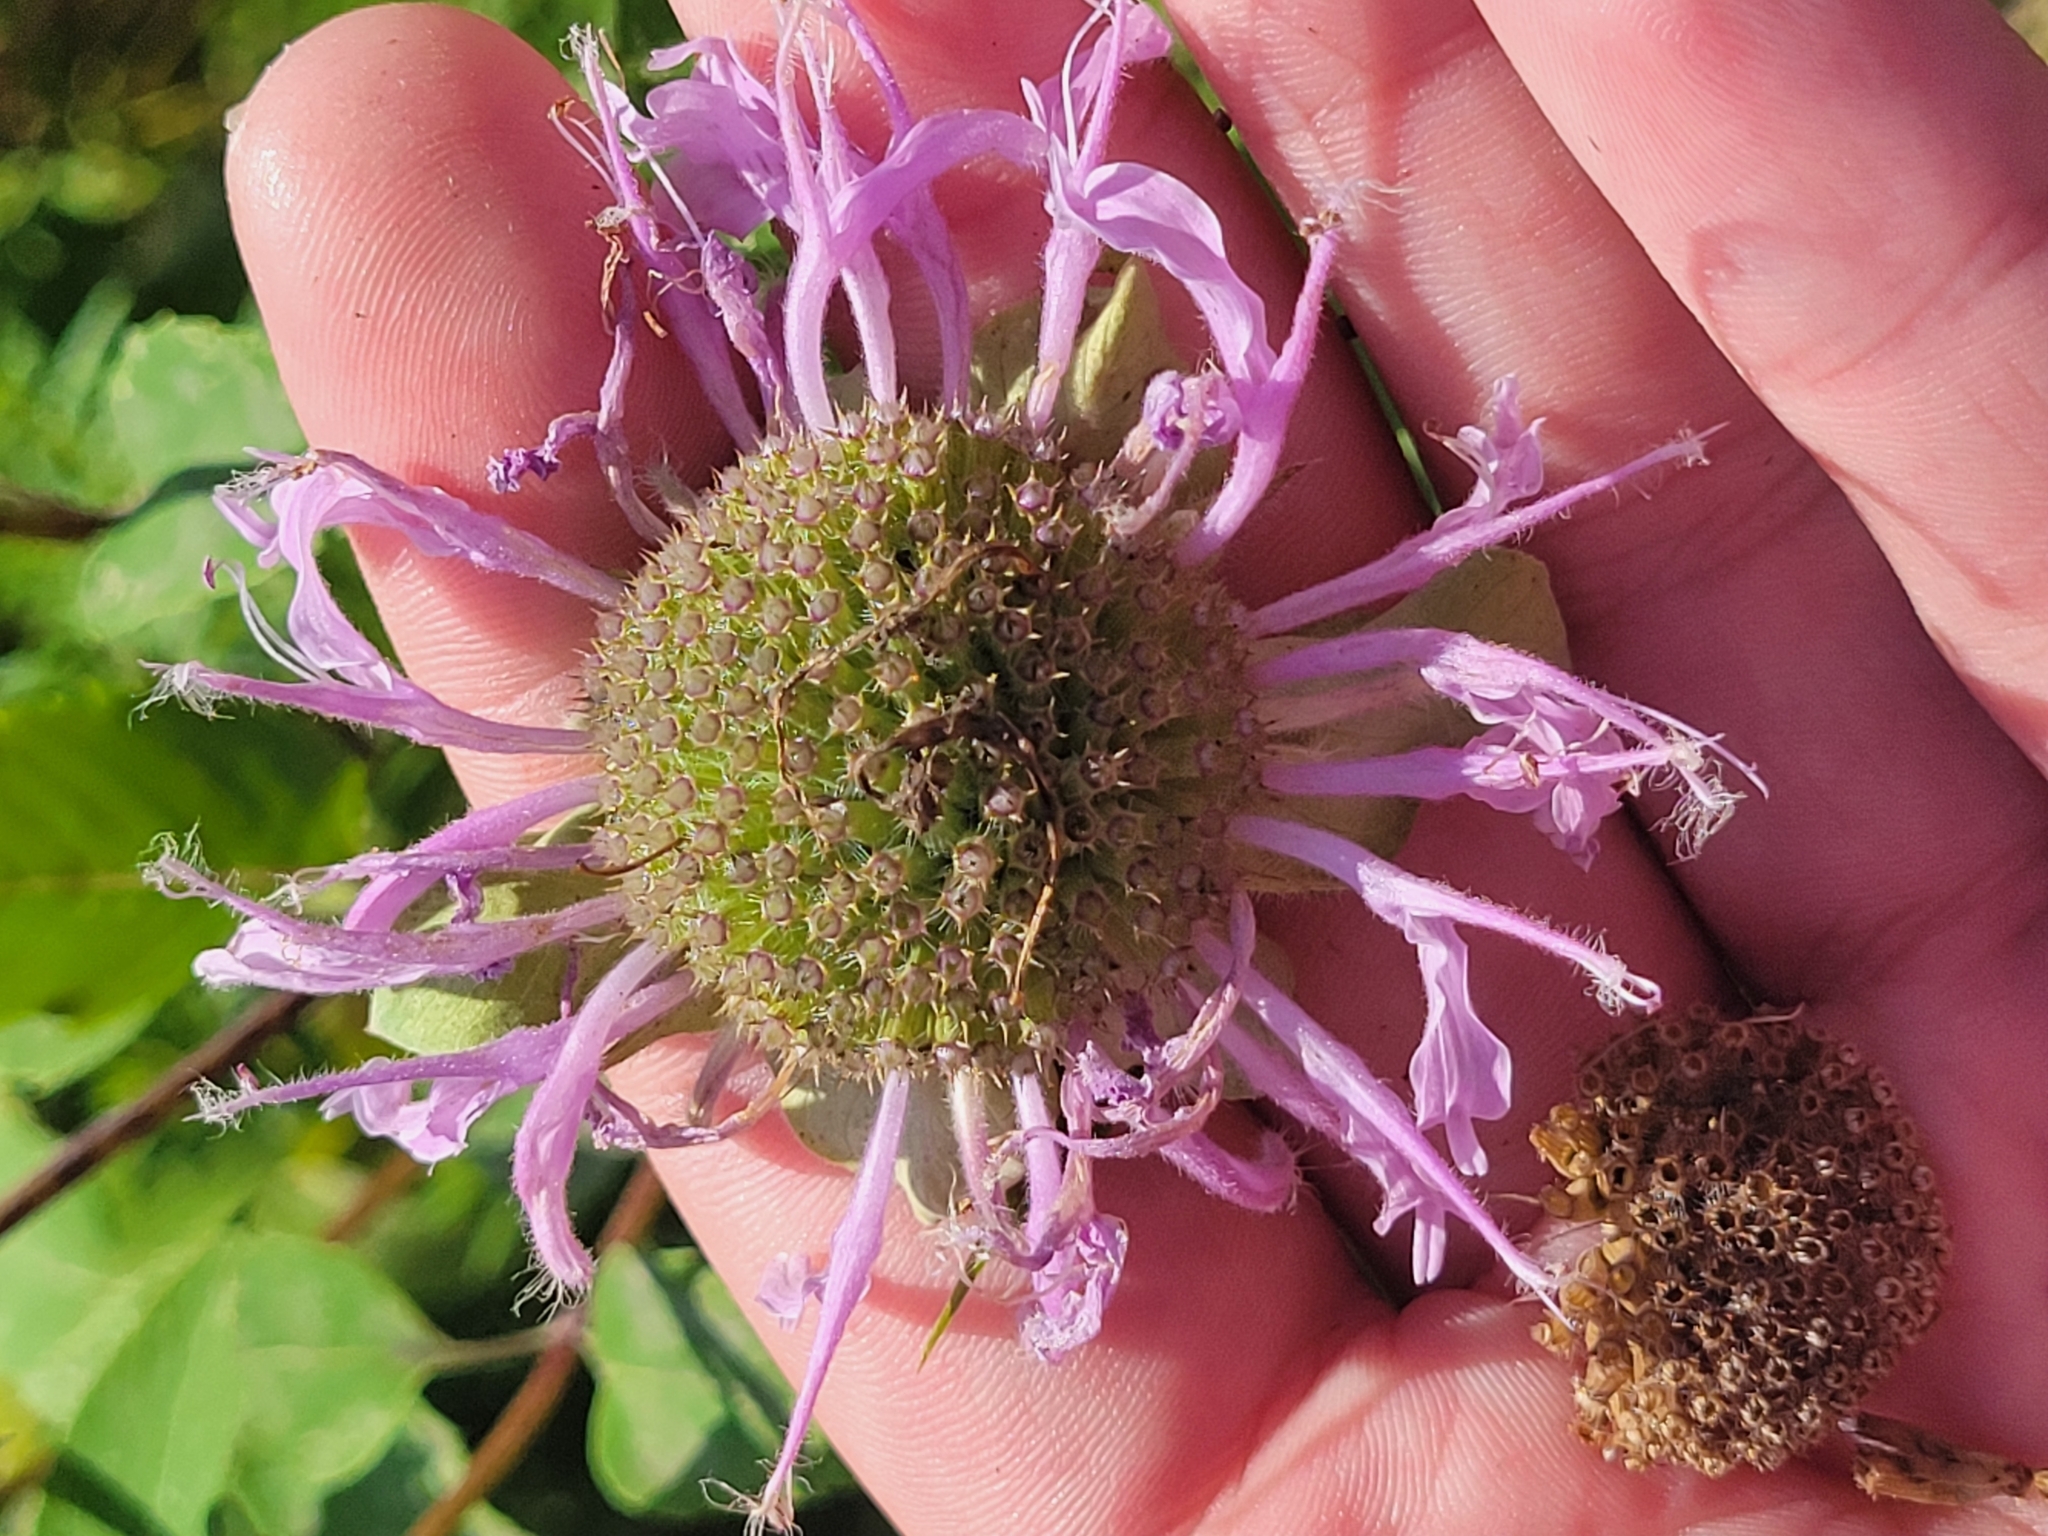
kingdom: Plantae
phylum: Tracheophyta
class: Magnoliopsida
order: Lamiales
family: Lamiaceae
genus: Monarda
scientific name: Monarda fistulosa
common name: Purple beebalm
